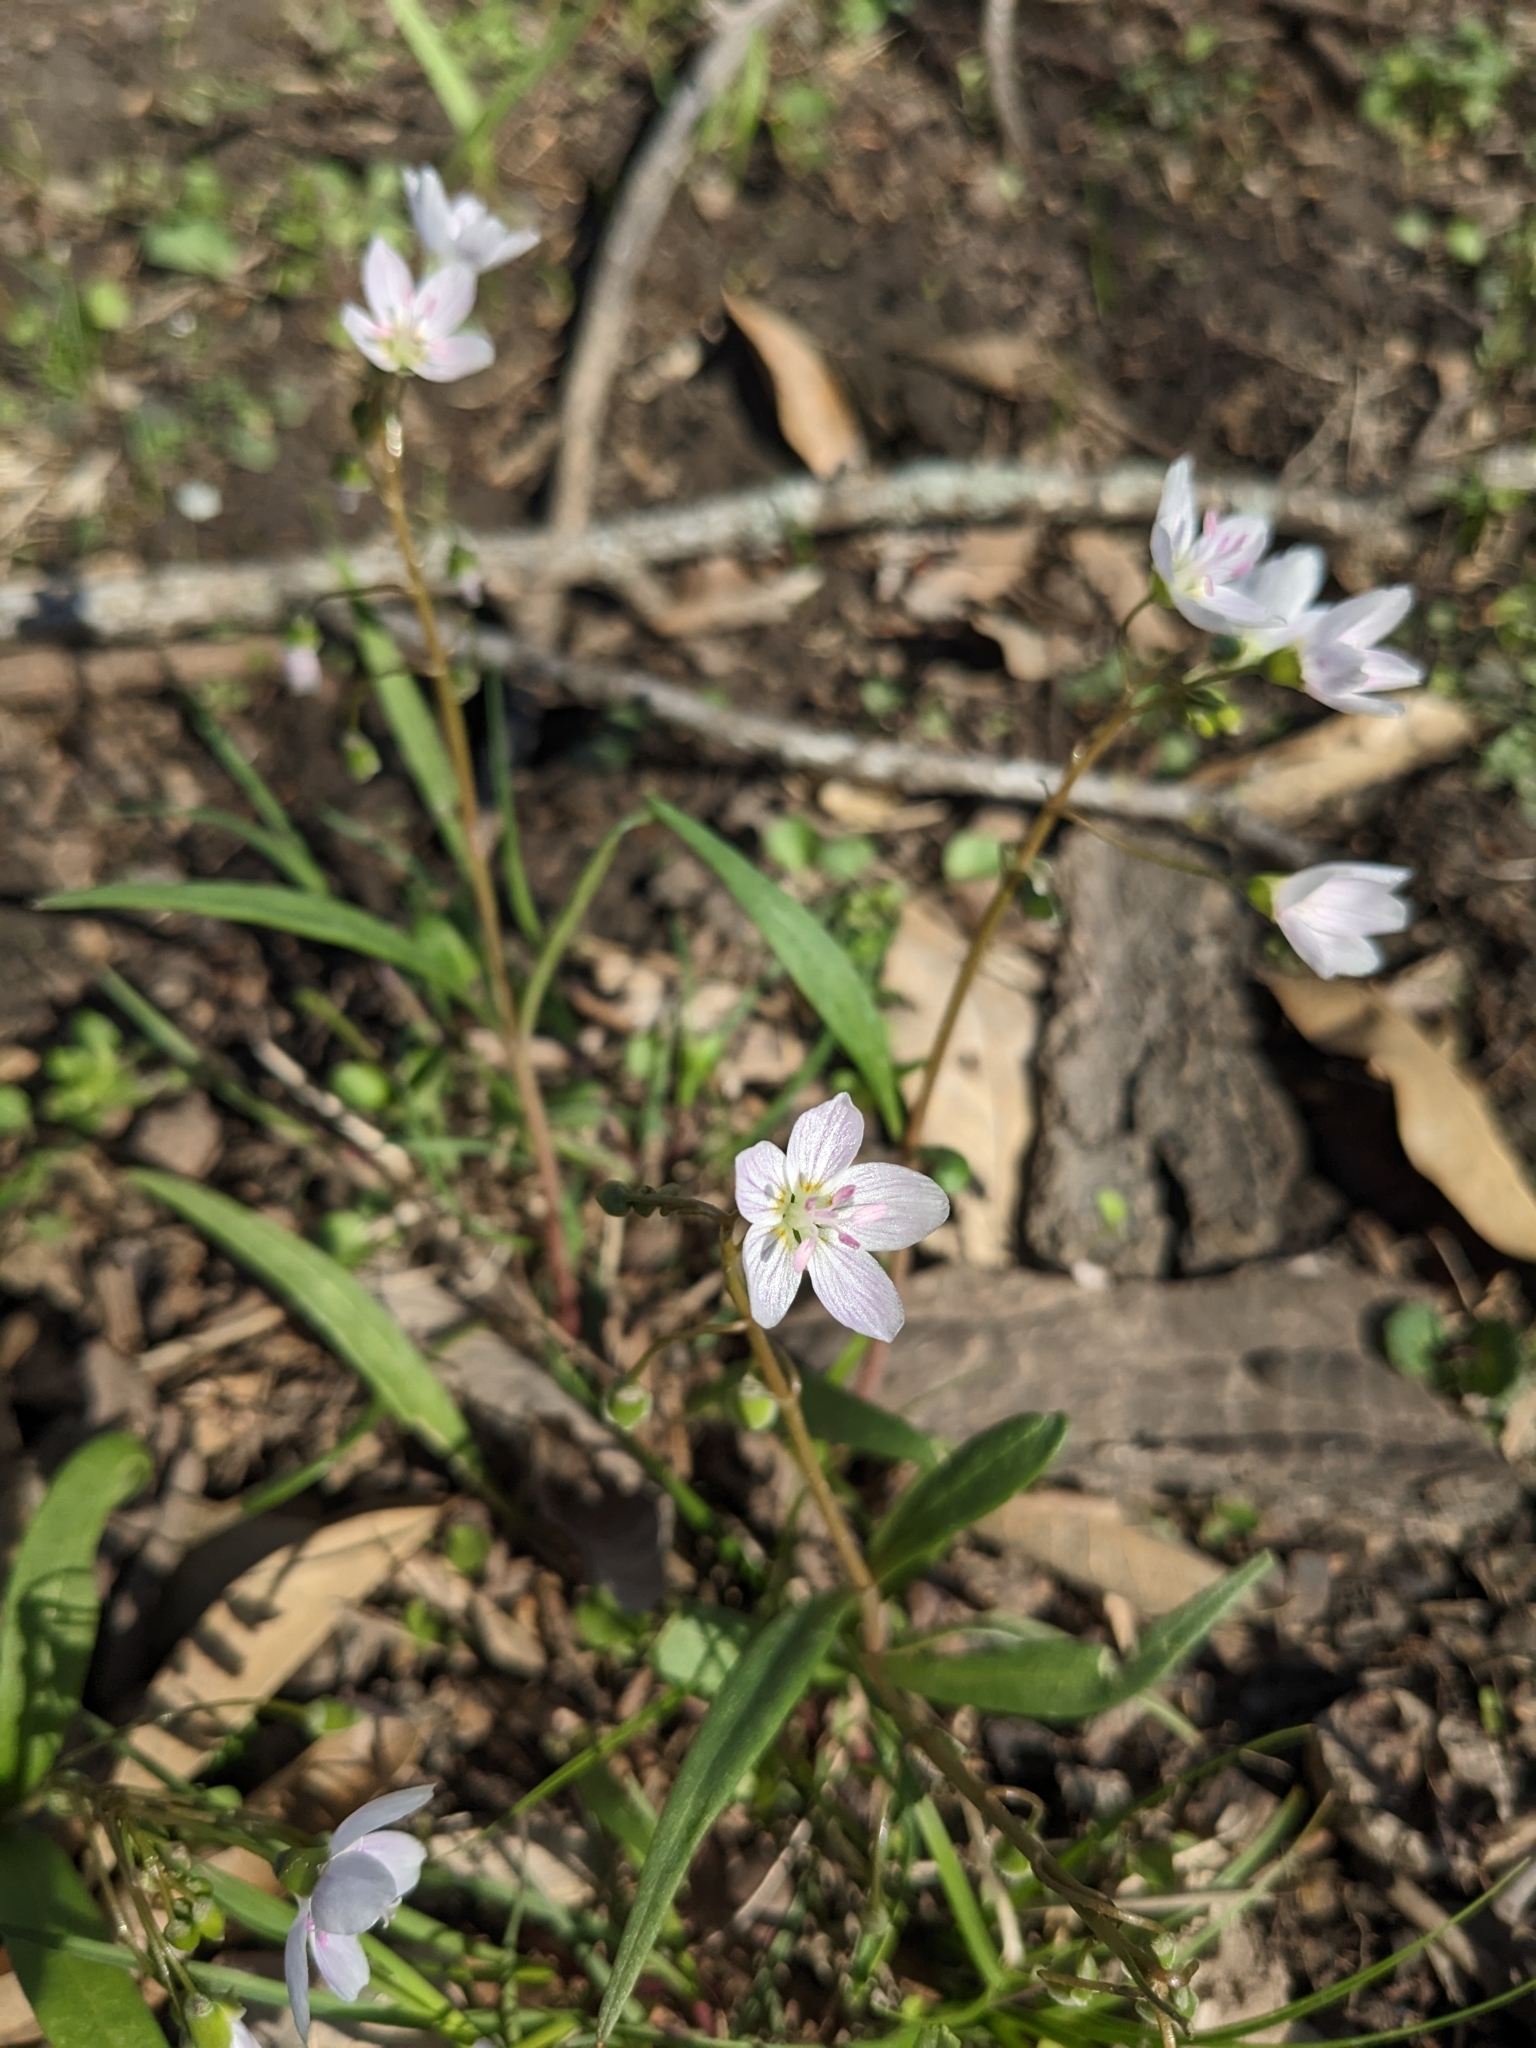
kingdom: Plantae
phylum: Tracheophyta
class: Magnoliopsida
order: Caryophyllales
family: Montiaceae
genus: Claytonia
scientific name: Claytonia virginica
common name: Virginia springbeauty
